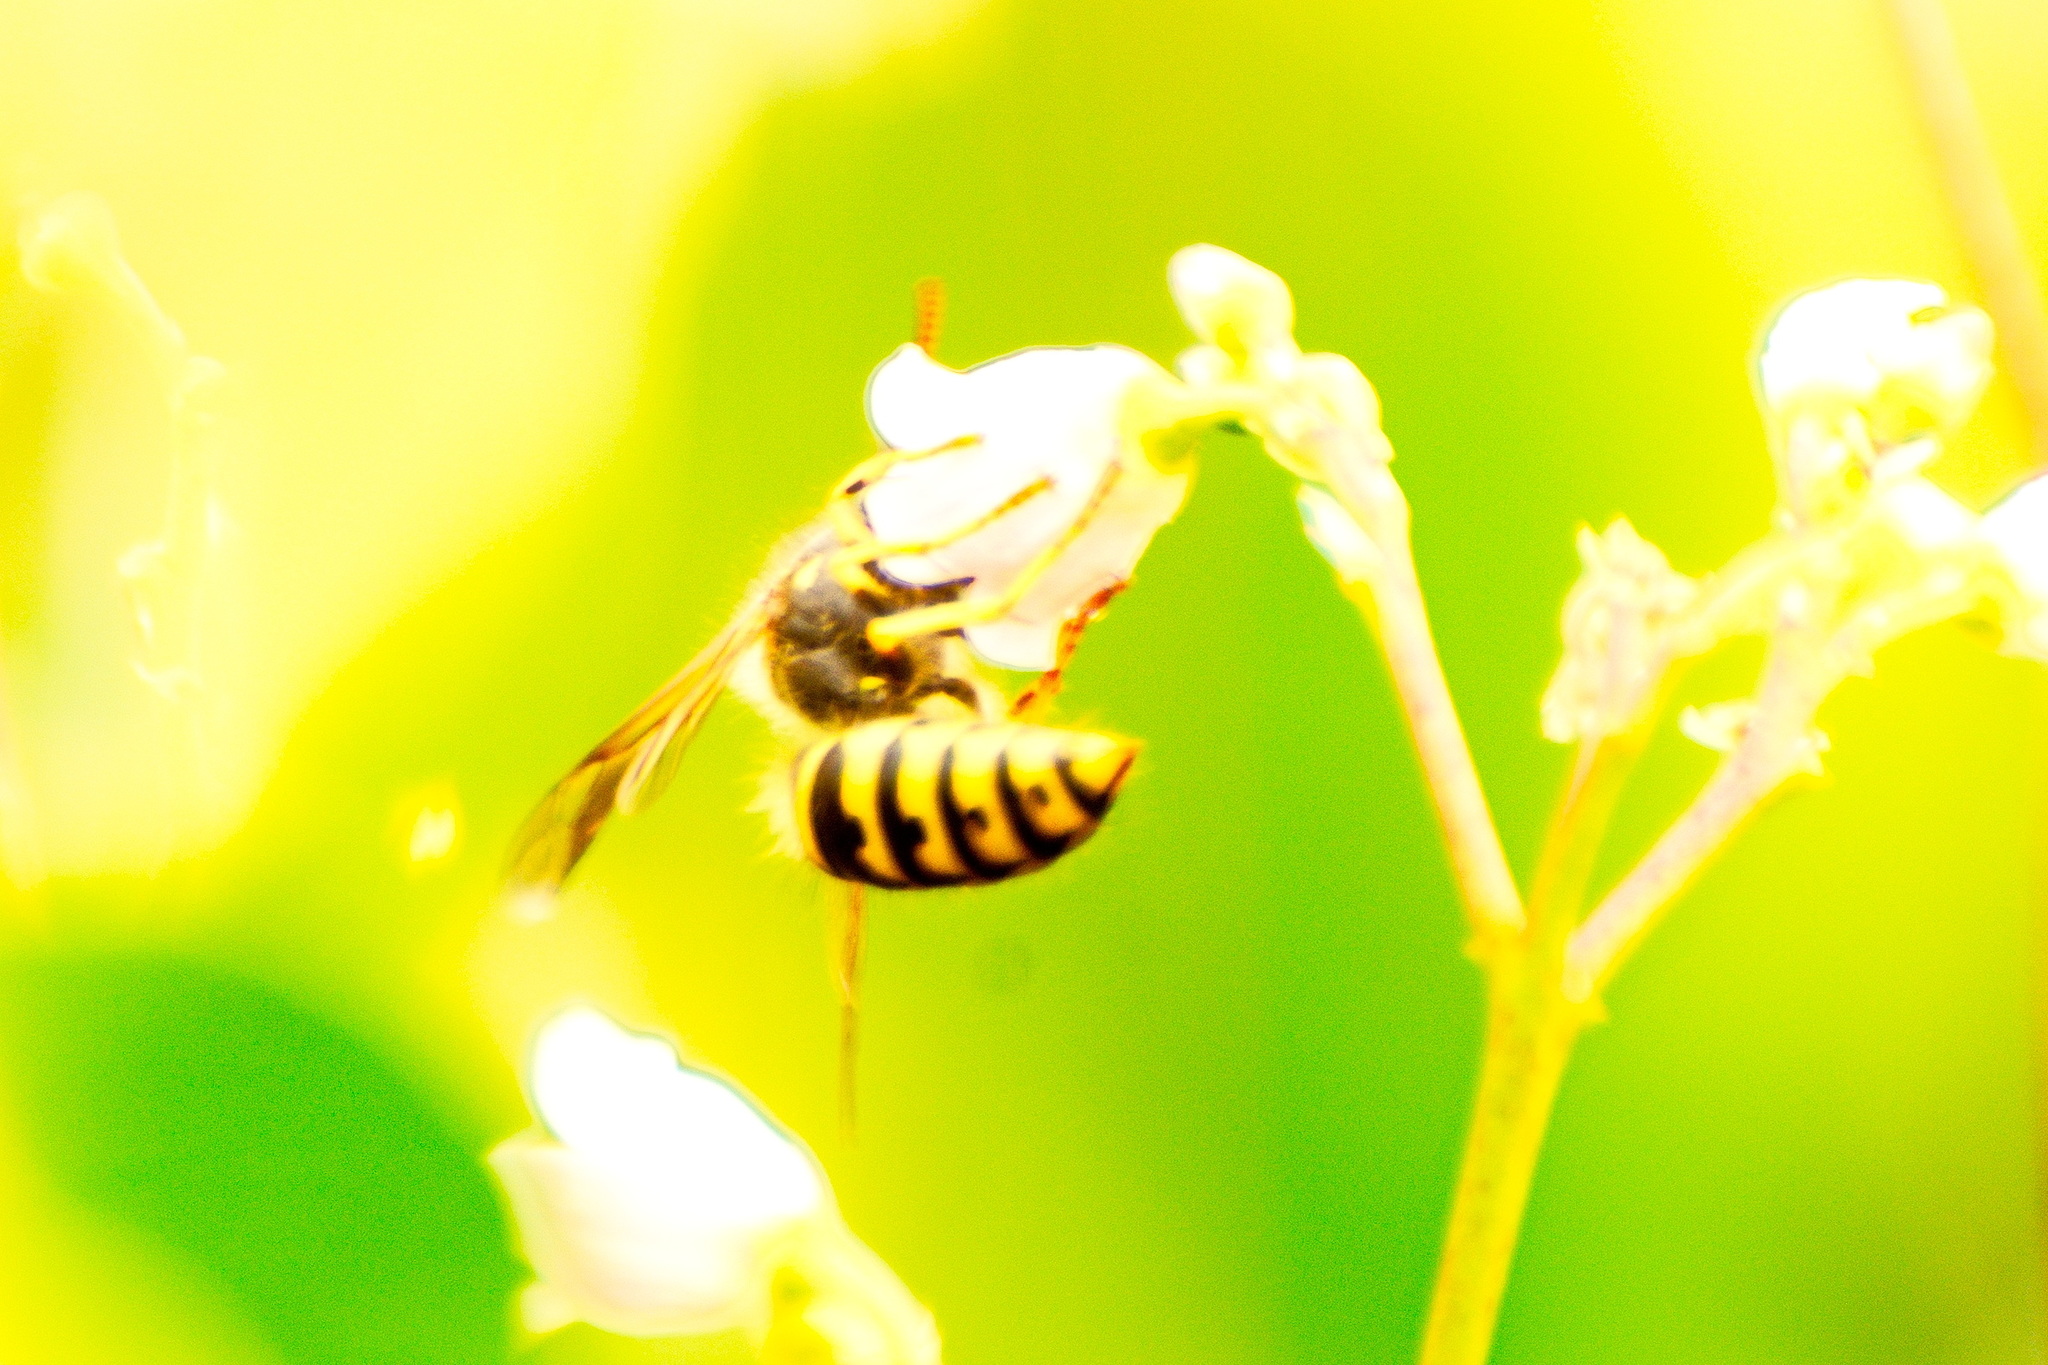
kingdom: Animalia
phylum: Arthropoda
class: Insecta
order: Hymenoptera
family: Vespidae
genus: Dolichovespula
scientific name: Dolichovespula arenaria
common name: Aerial yellowjacket
